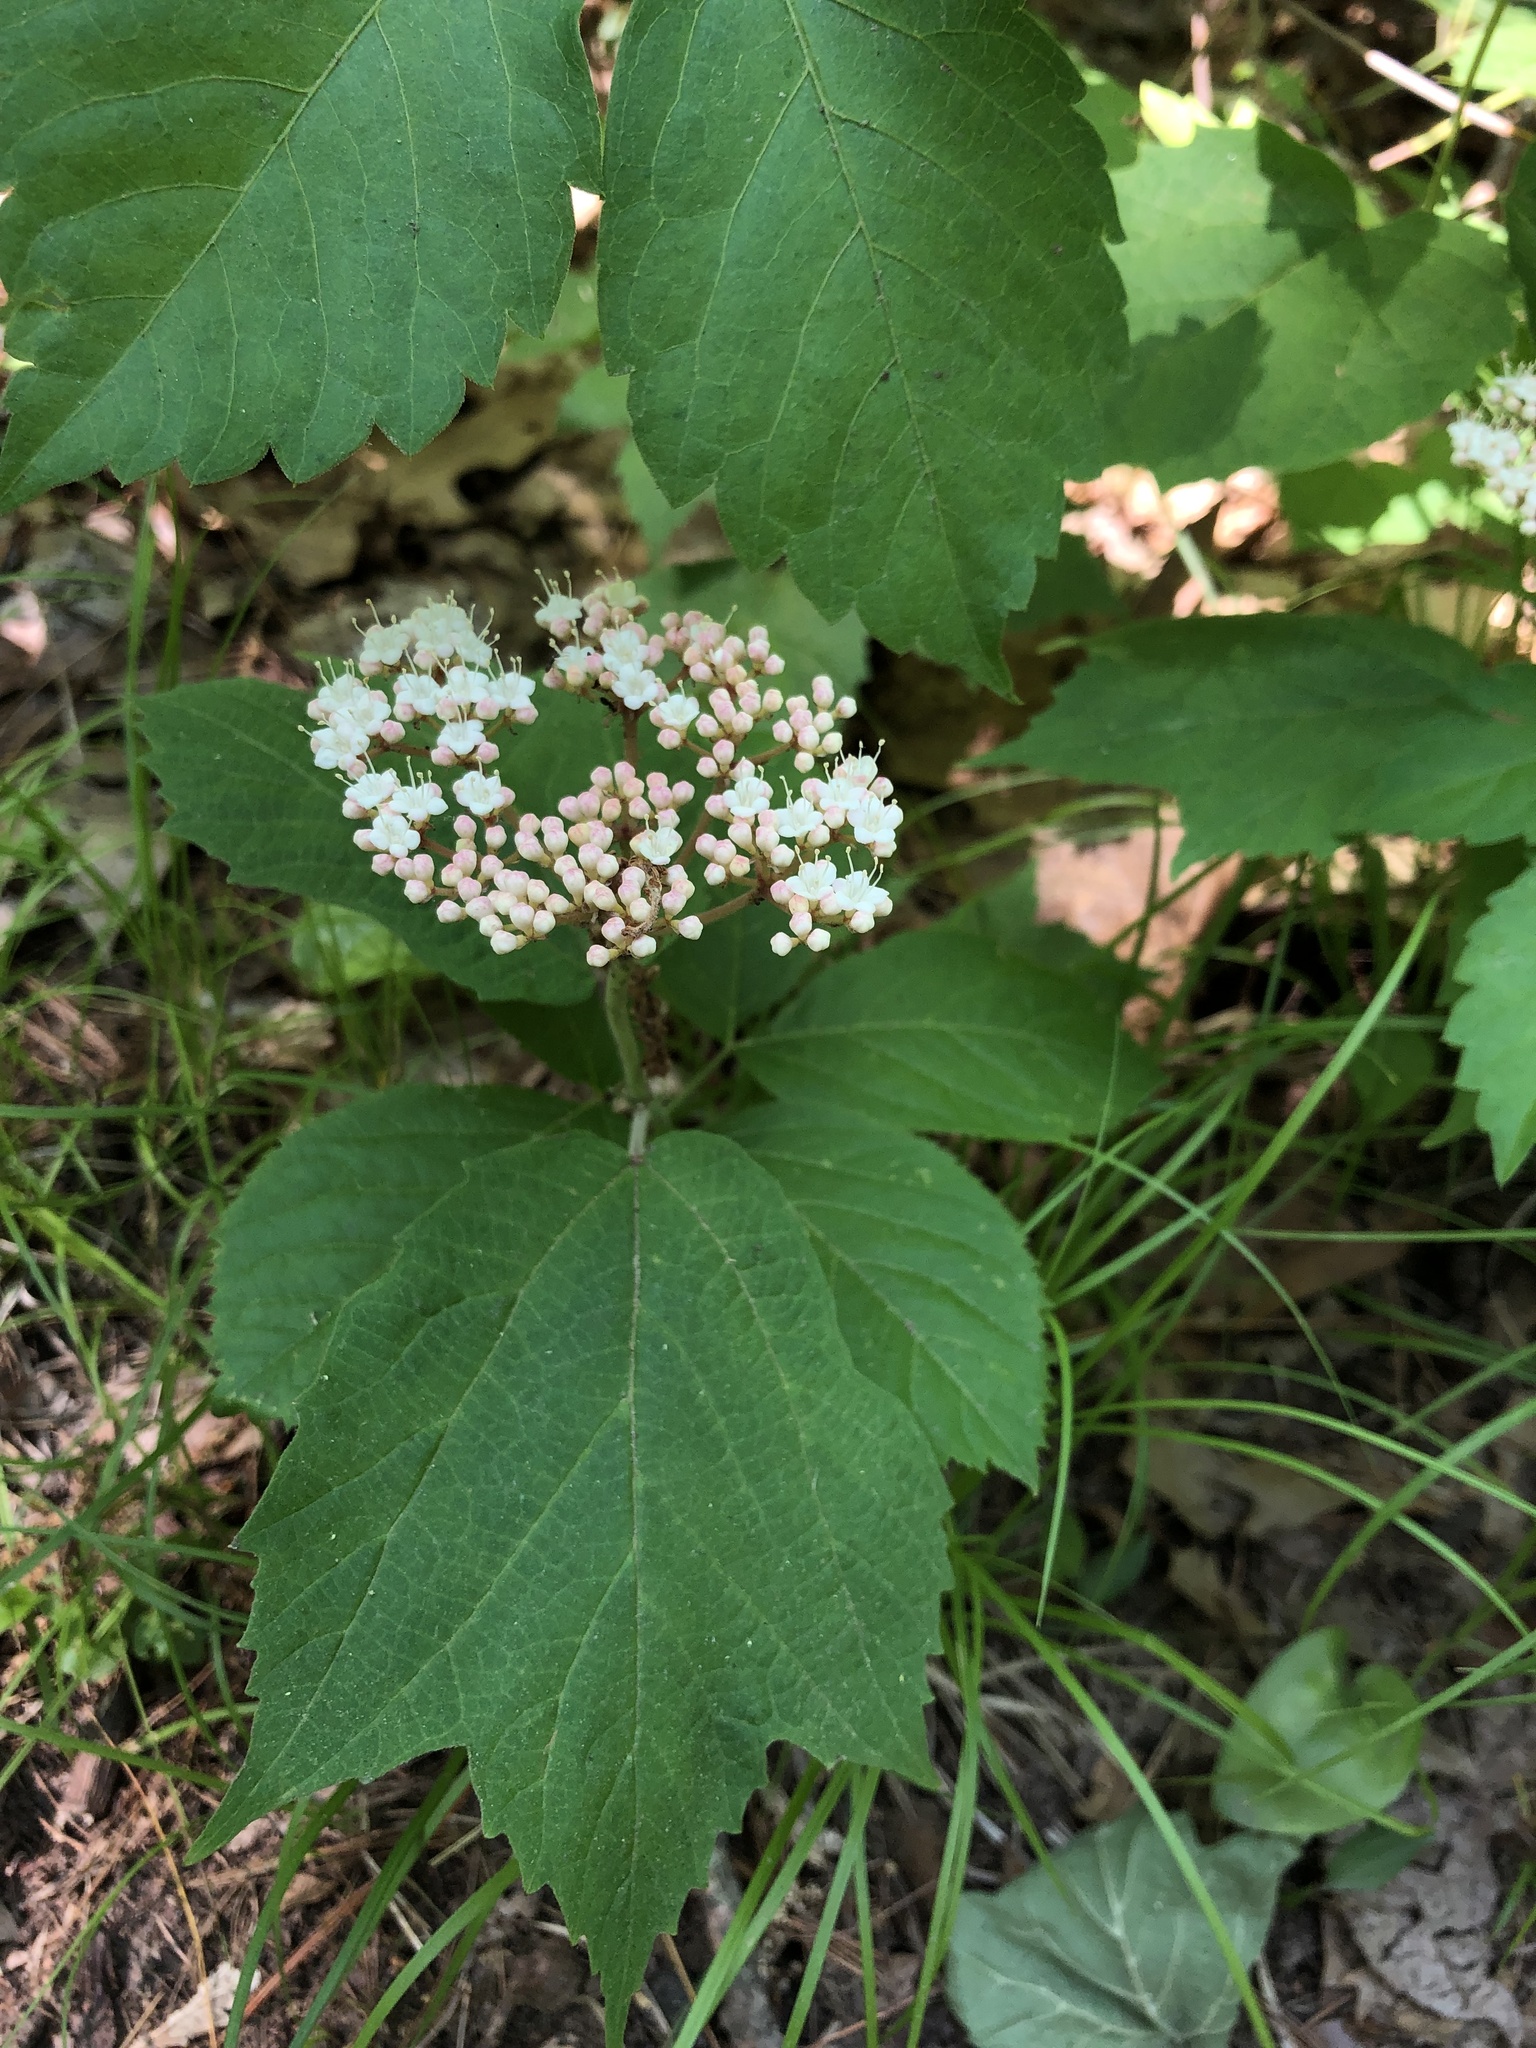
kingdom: Plantae
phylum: Tracheophyta
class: Magnoliopsida
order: Dipsacales
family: Viburnaceae
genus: Viburnum
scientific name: Viburnum acerifolium
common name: Dockmackie
